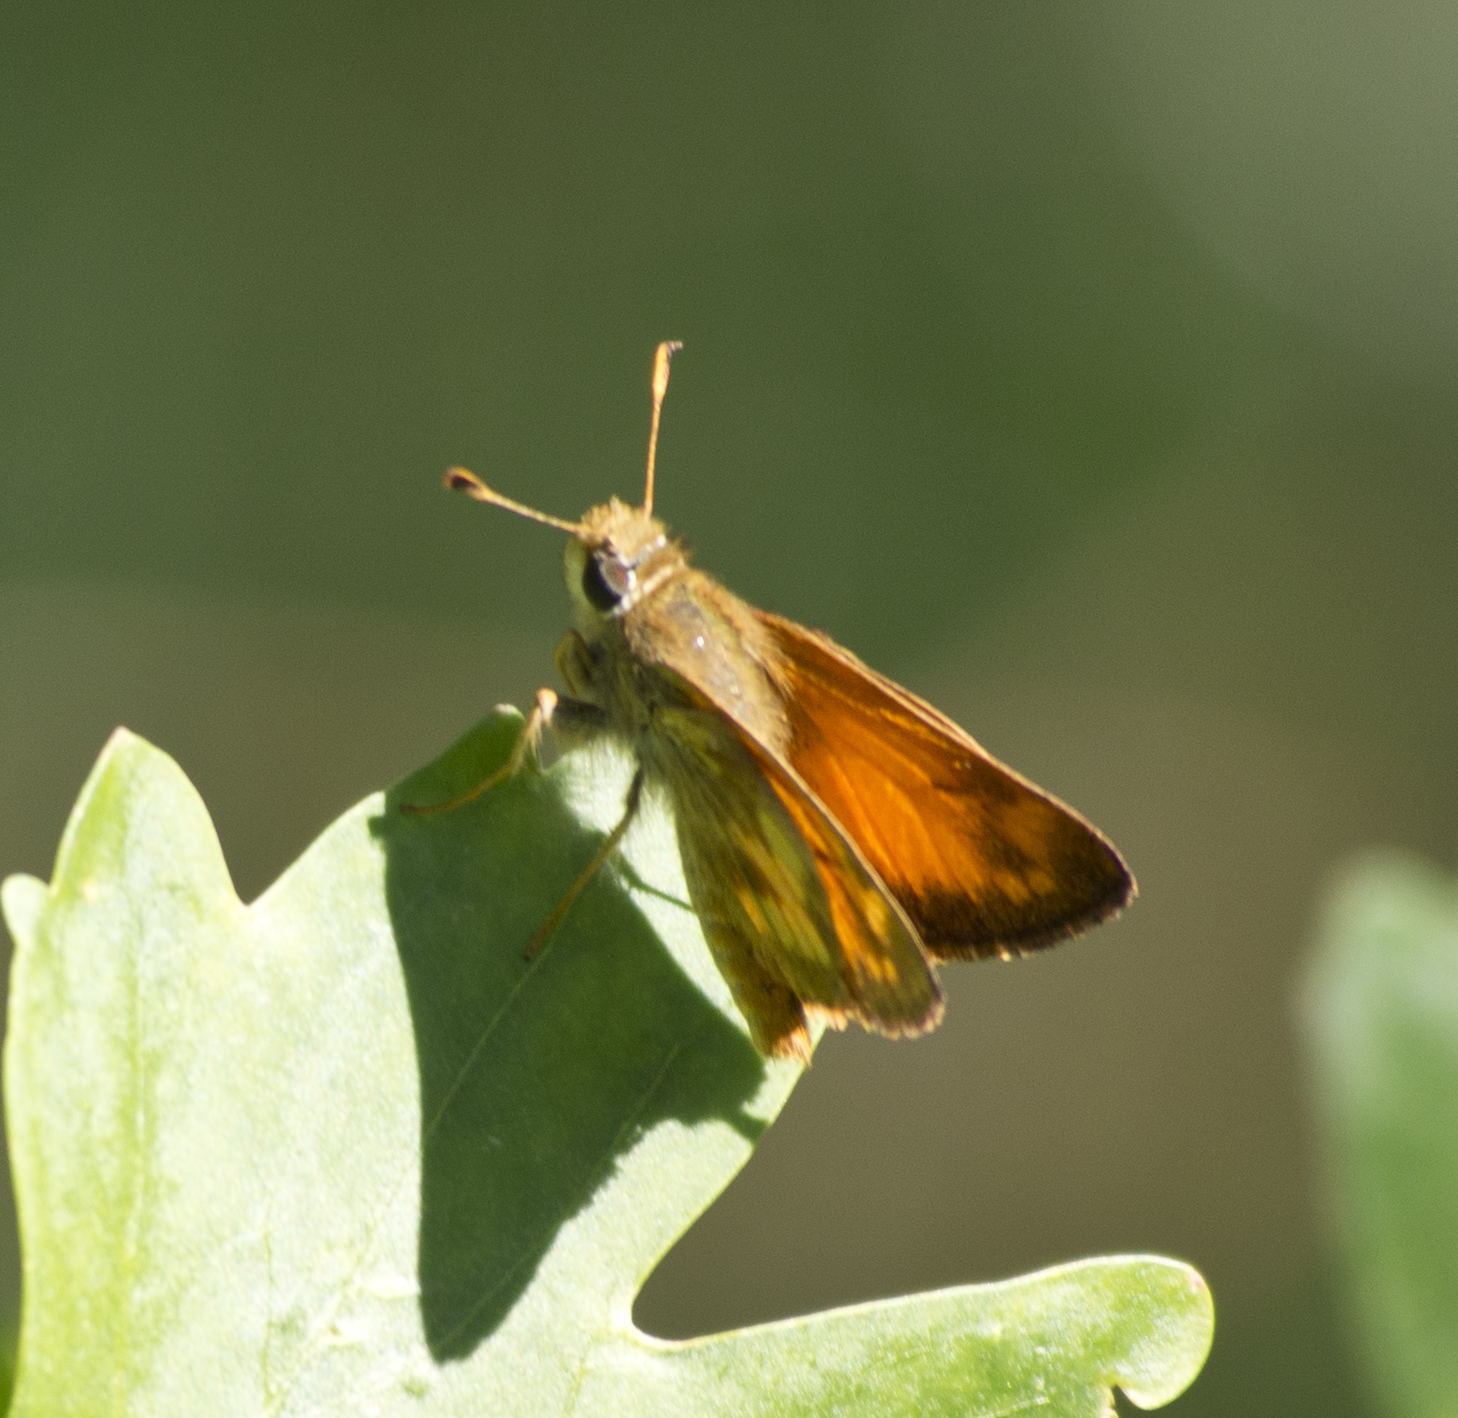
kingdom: Animalia
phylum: Arthropoda
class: Insecta
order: Lepidoptera
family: Hesperiidae
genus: Lon
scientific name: Lon taxiles
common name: Taxiles skipper
